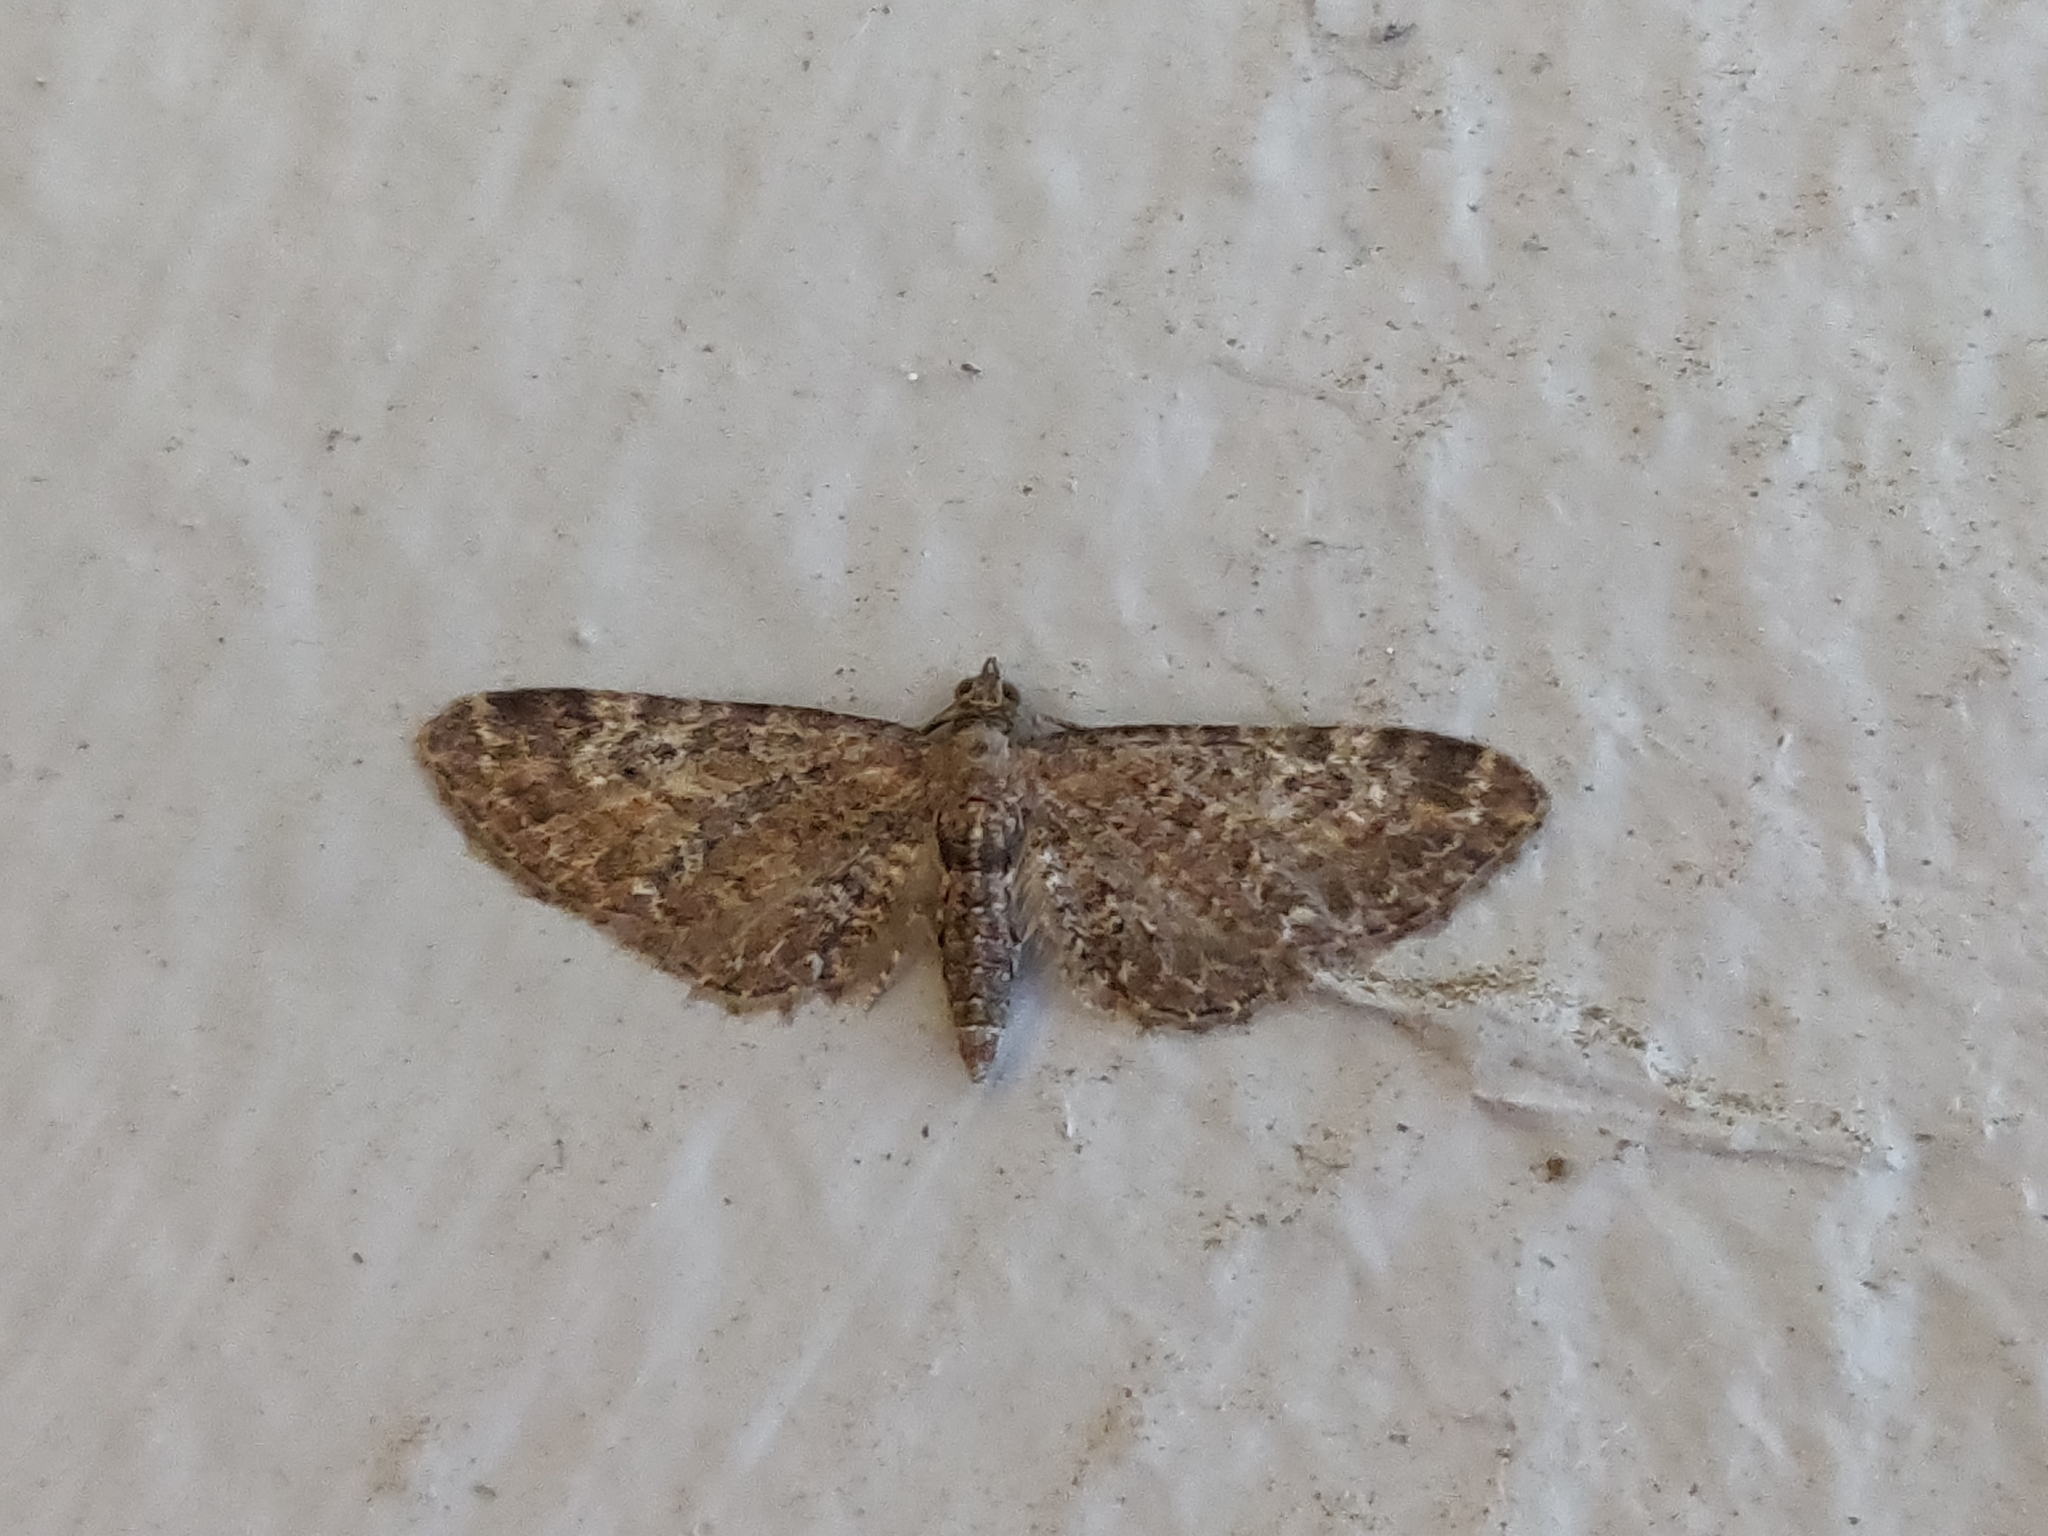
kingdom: Animalia
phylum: Arthropoda
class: Insecta
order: Lepidoptera
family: Geometridae
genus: Eupithecia
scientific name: Eupithecia vulgata
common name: Common pug
